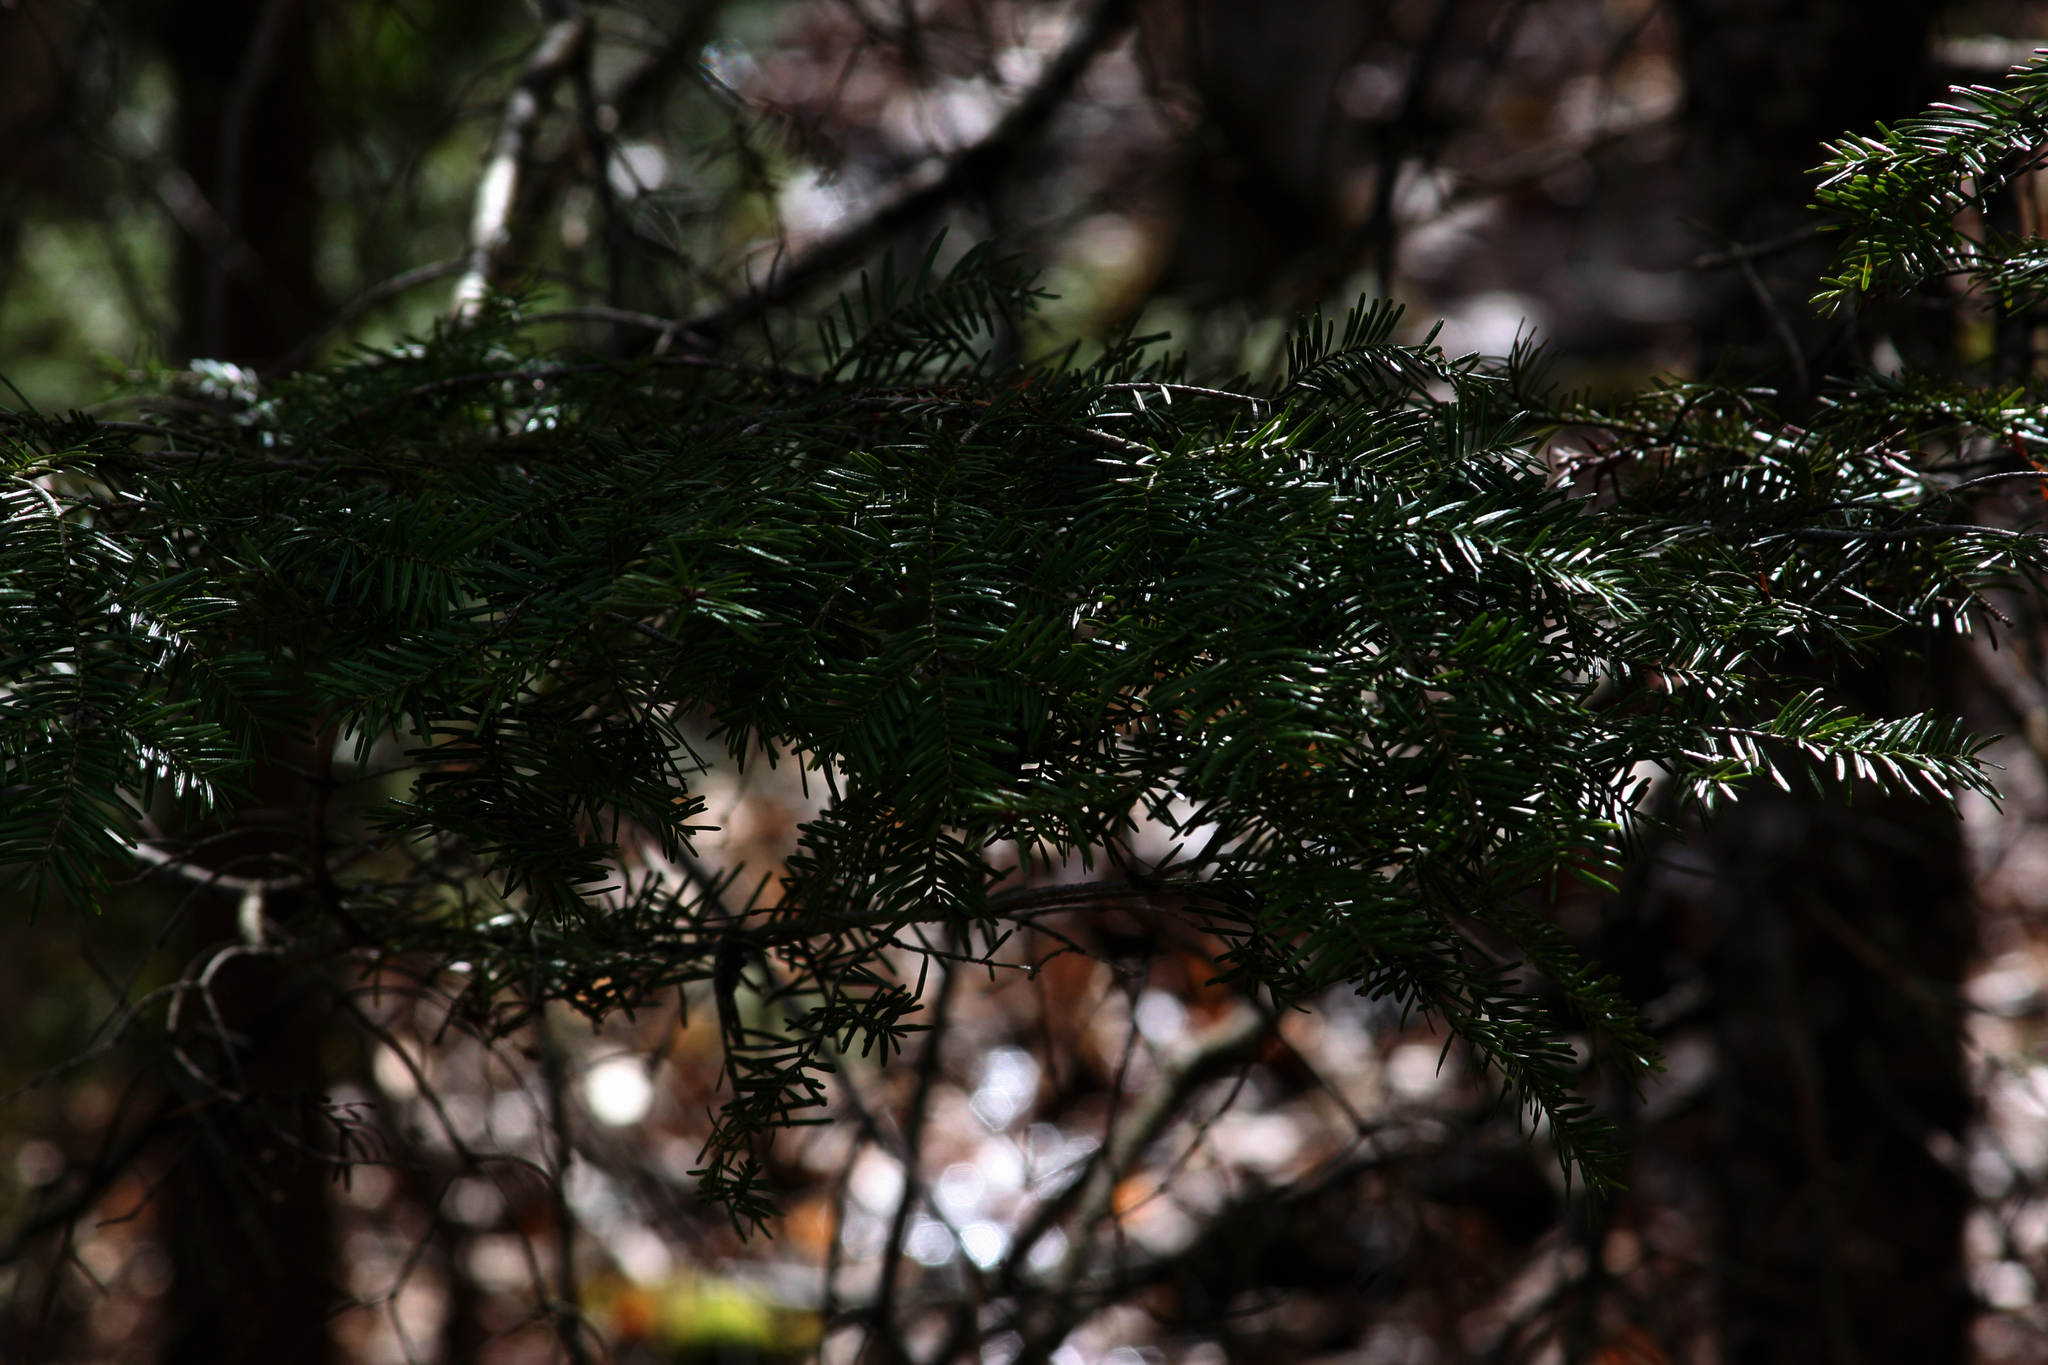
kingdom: Plantae
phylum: Tracheophyta
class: Pinopsida
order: Pinales
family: Pinaceae
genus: Abies
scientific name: Abies balsamea
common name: Balsam fir
